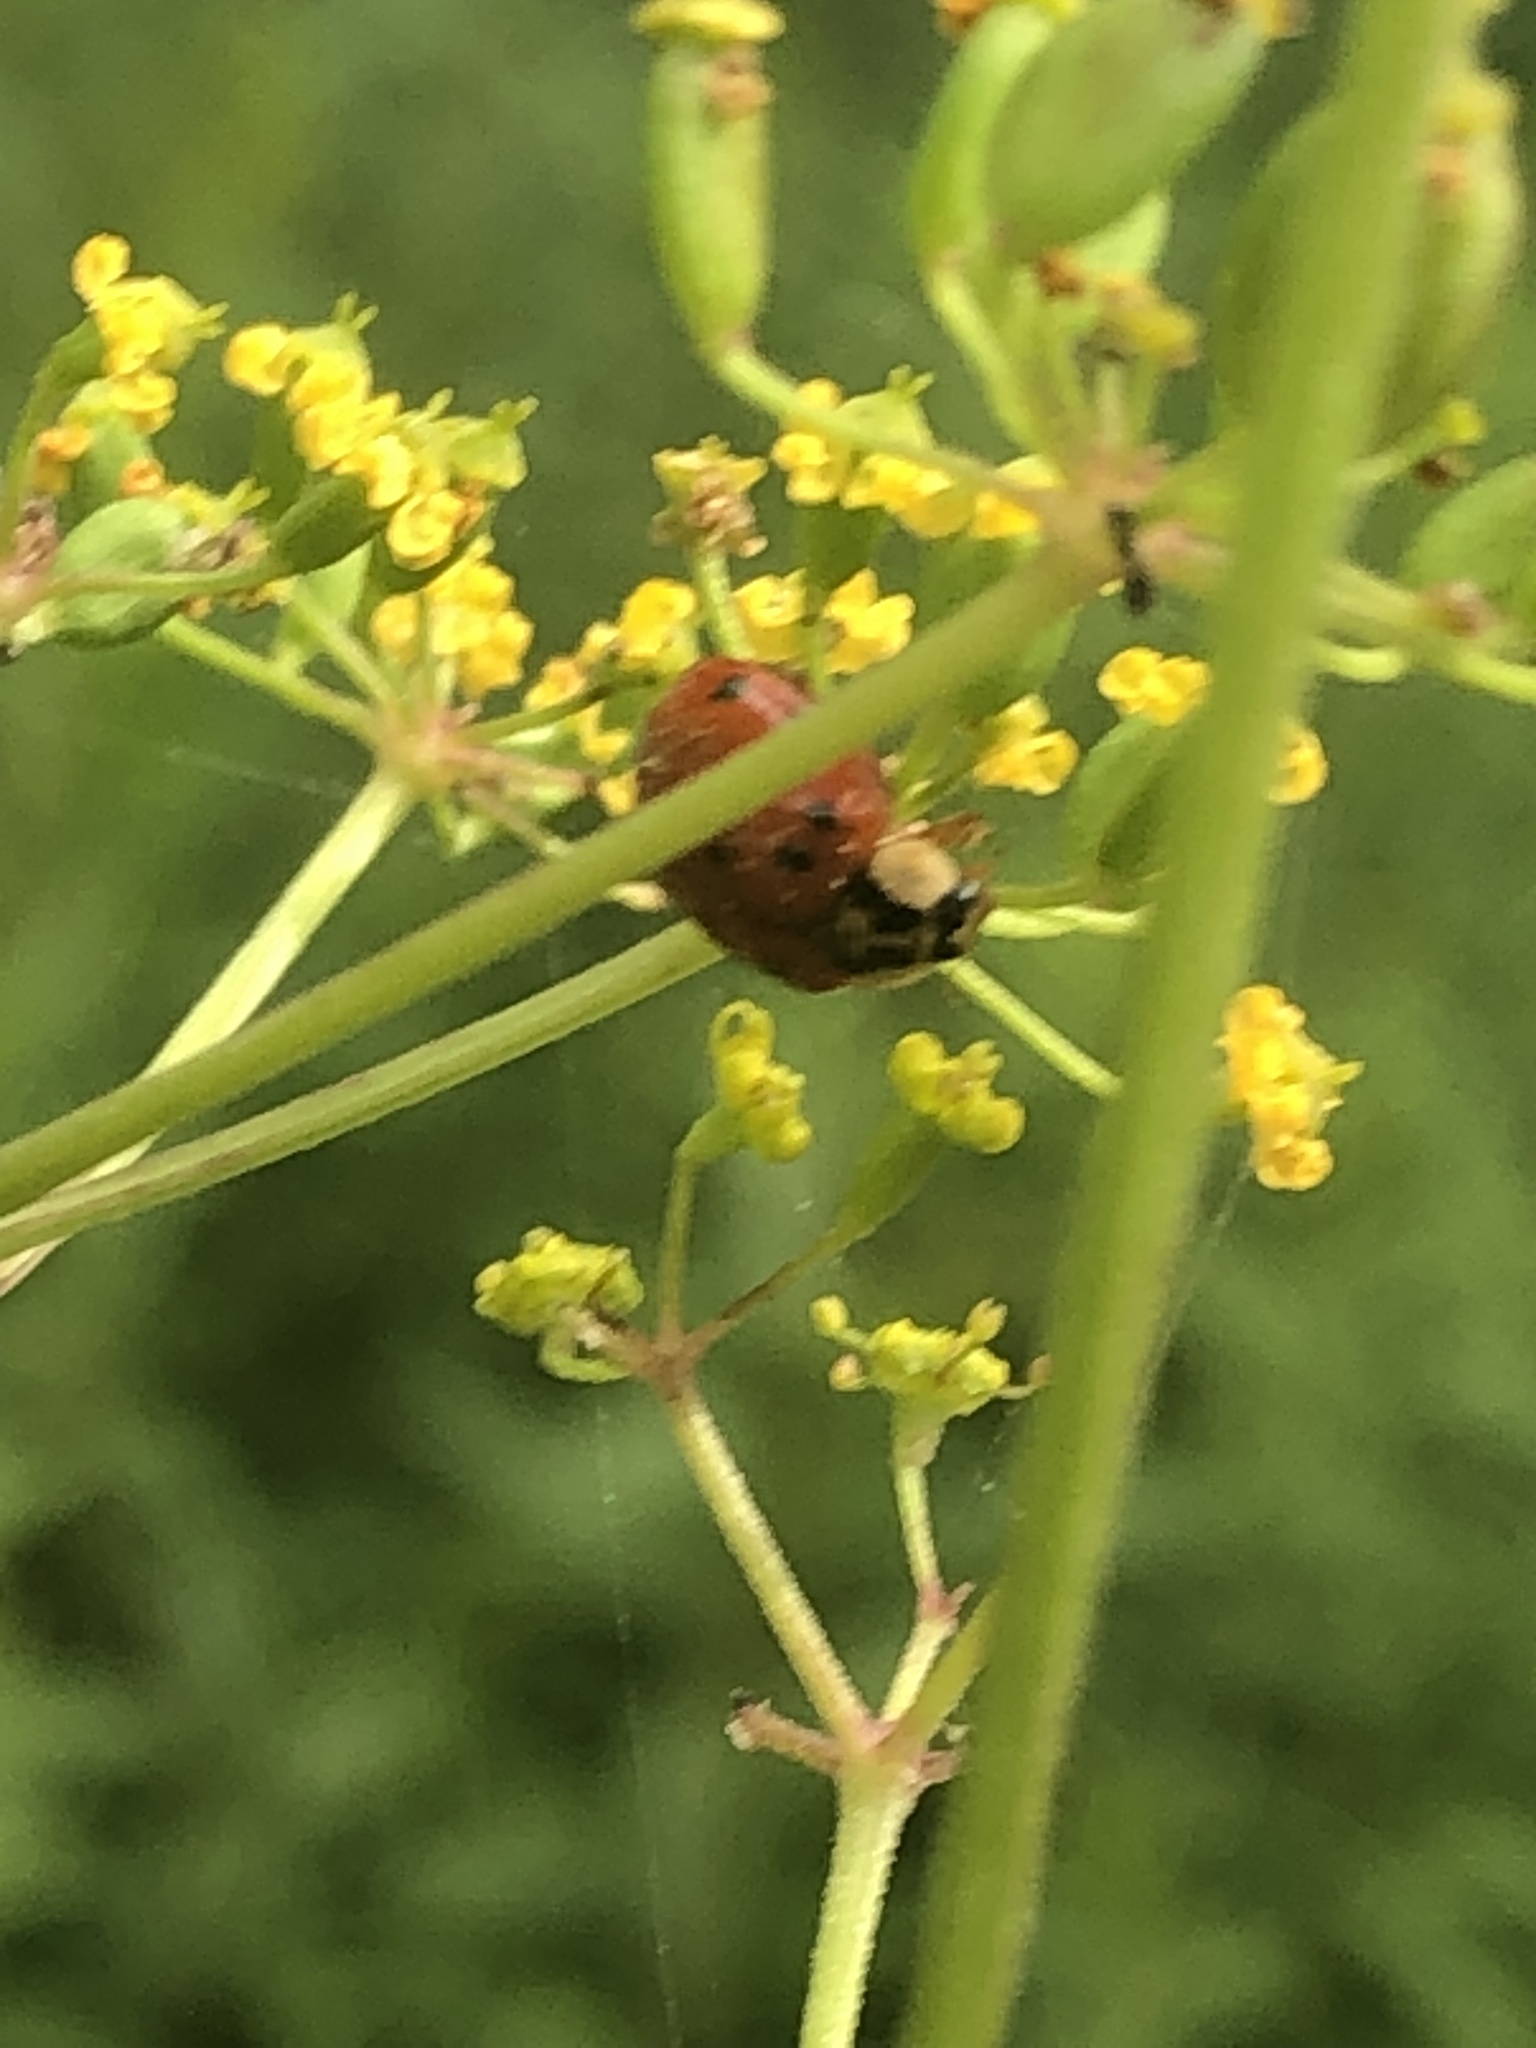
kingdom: Animalia
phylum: Arthropoda
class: Insecta
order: Coleoptera
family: Coccinellidae
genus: Harmonia
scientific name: Harmonia axyridis
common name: Harlequin ladybird
